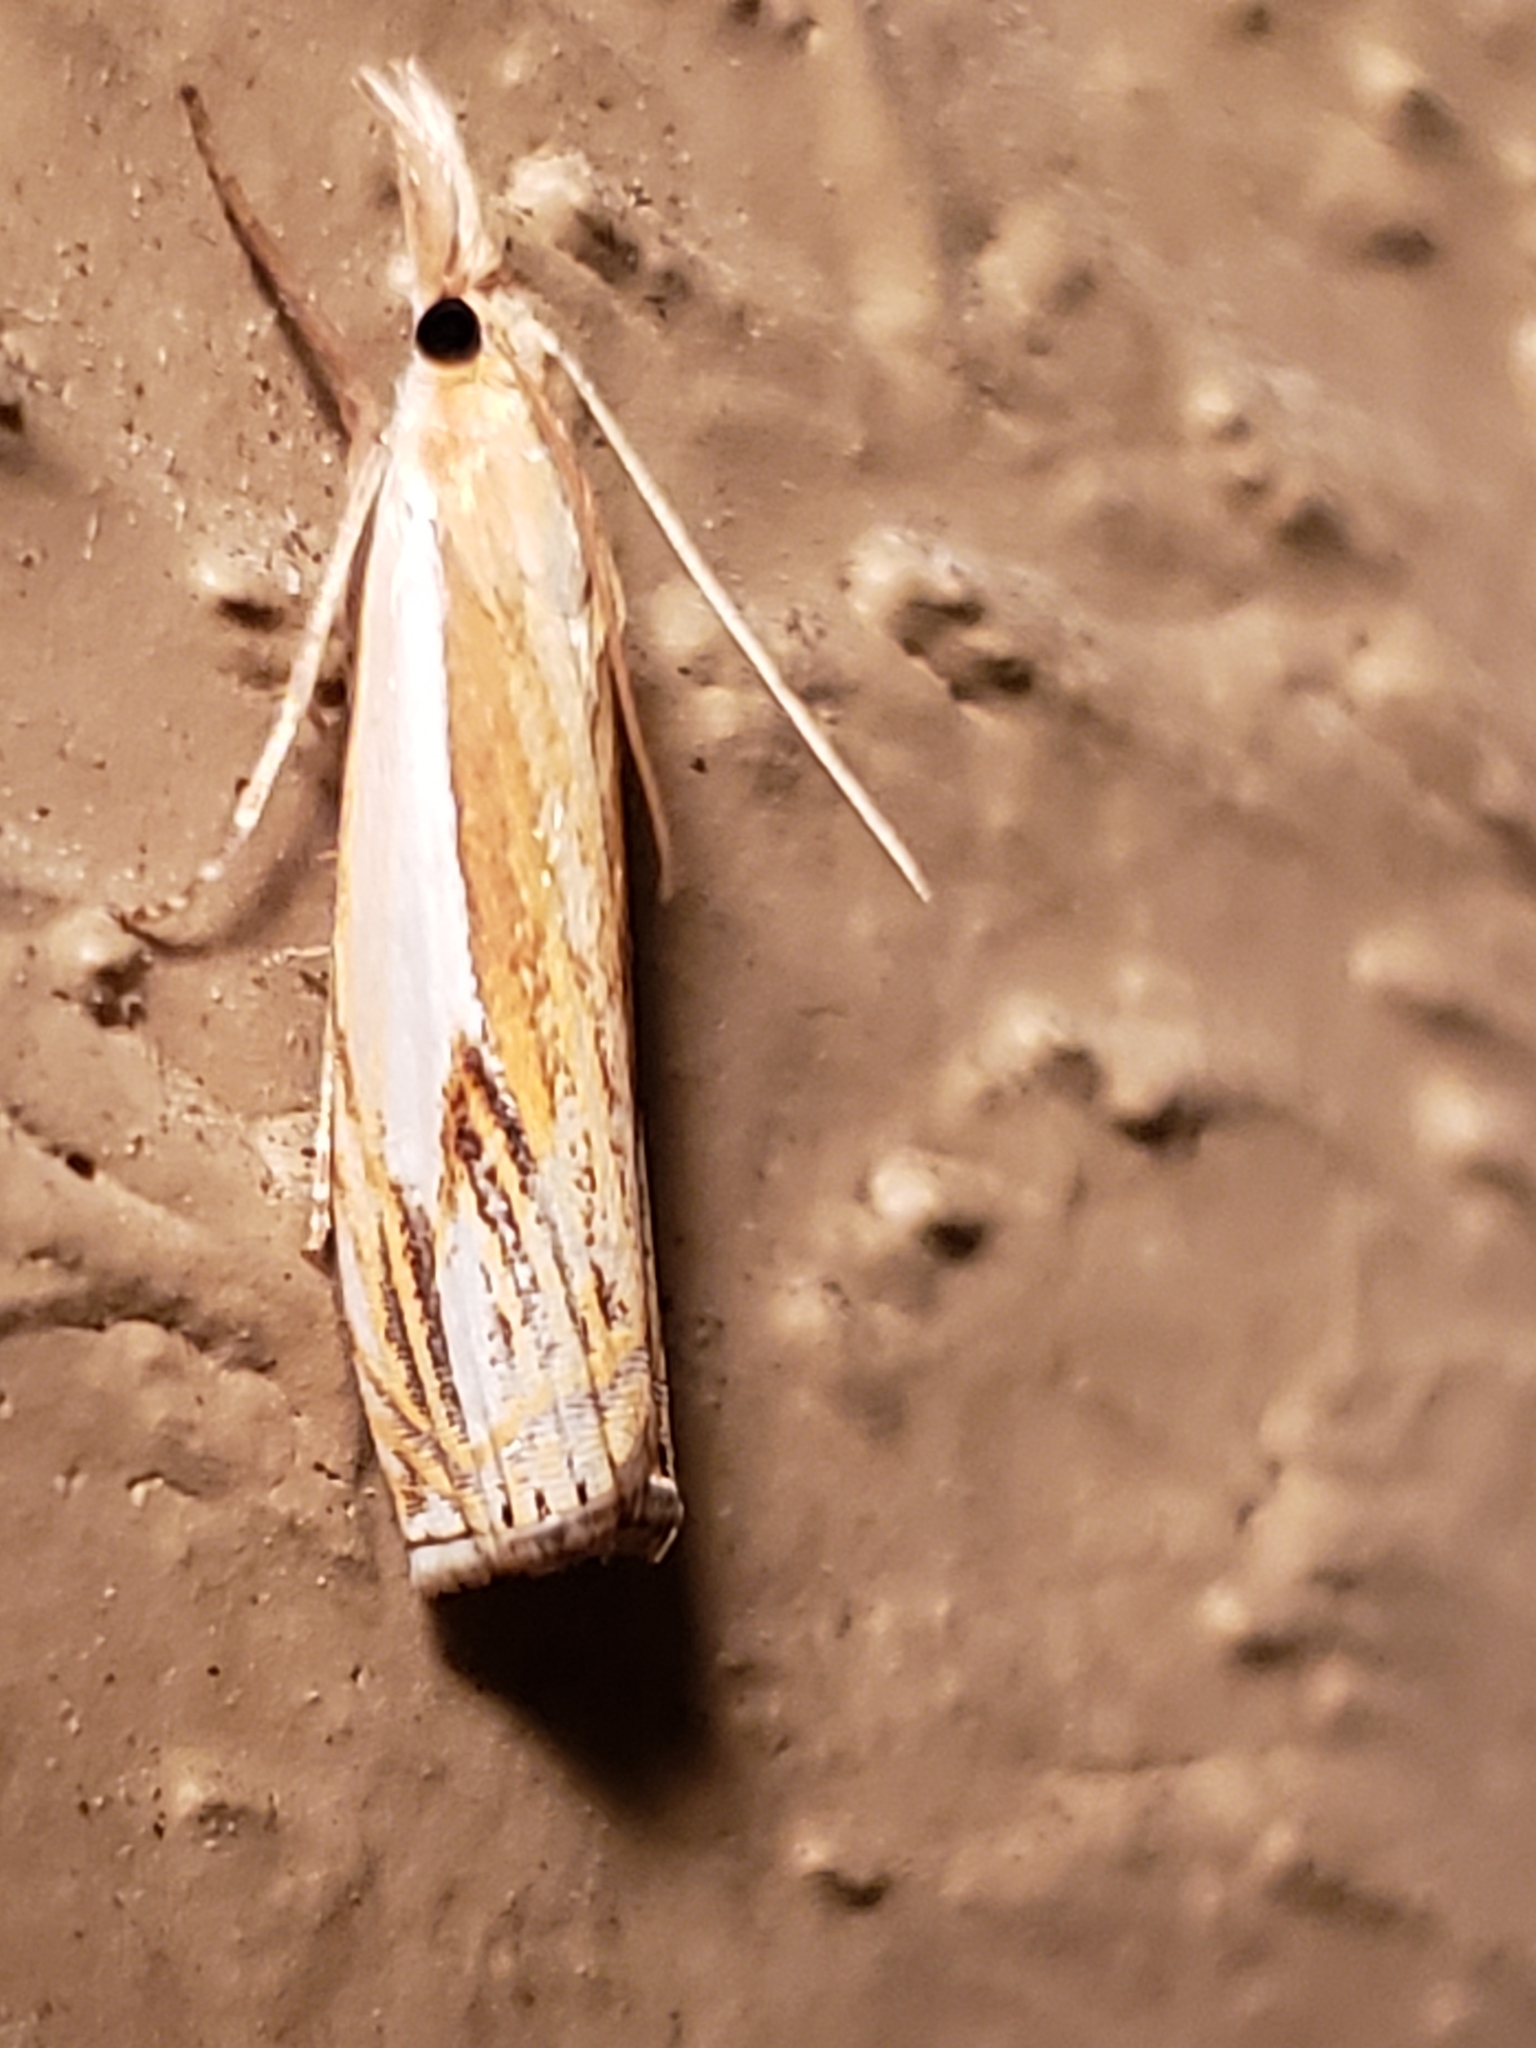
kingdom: Animalia
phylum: Arthropoda
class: Insecta
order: Lepidoptera
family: Crambidae
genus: Crambus
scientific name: Crambus agitatellus
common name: Double-banded grass-veneer
